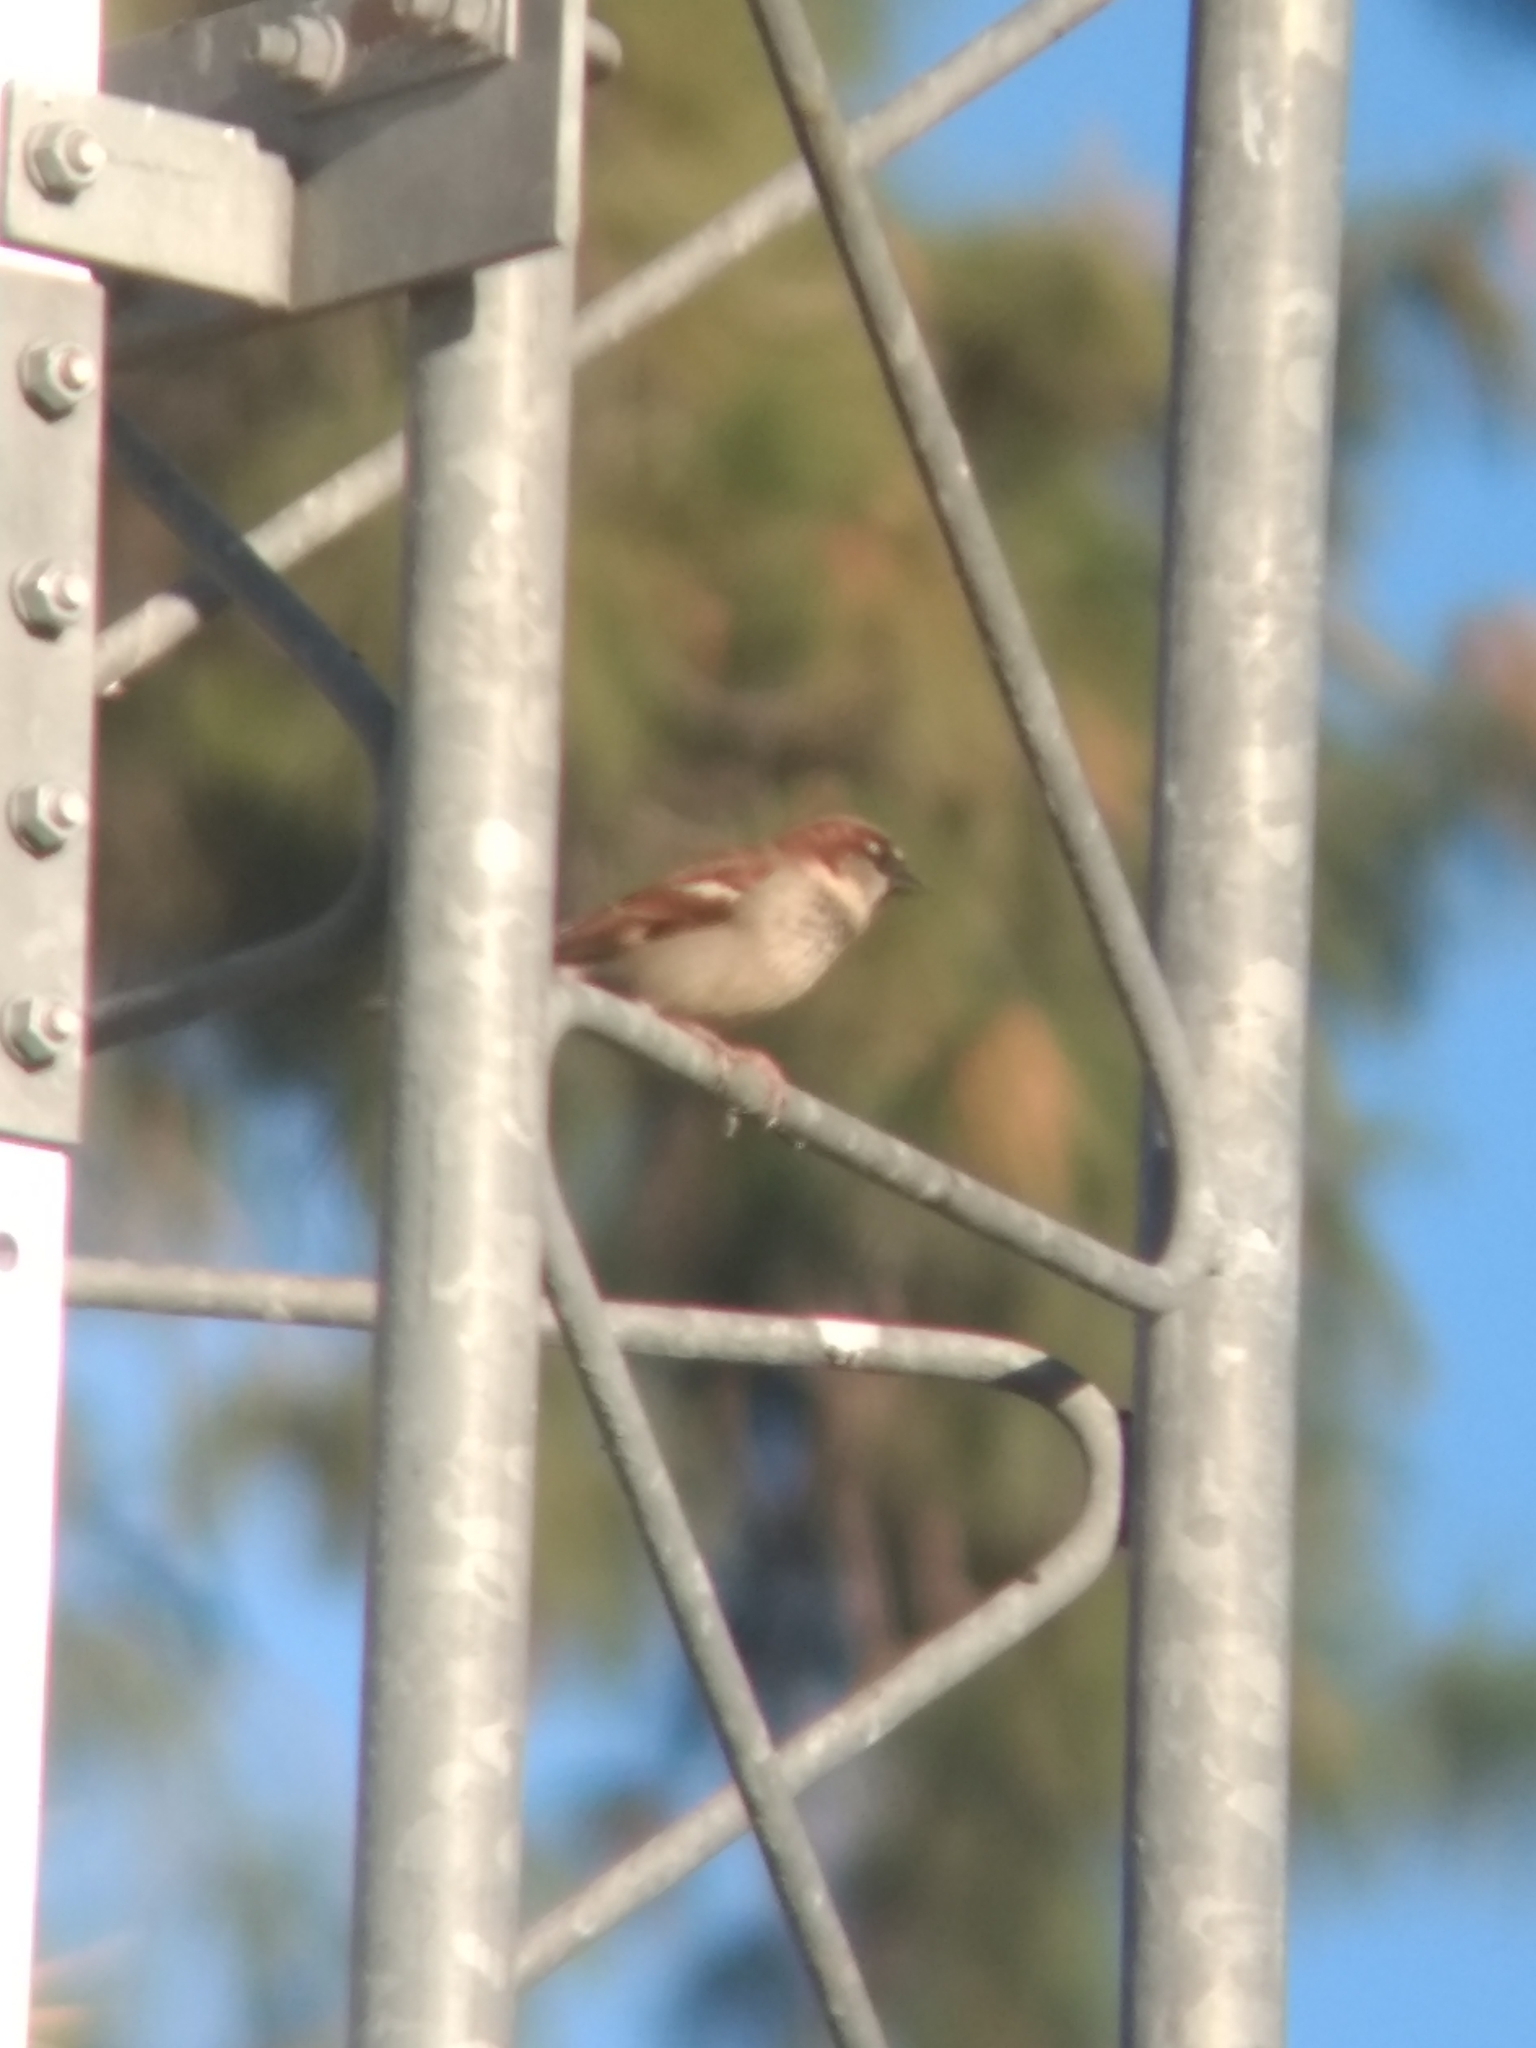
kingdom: Animalia
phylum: Chordata
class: Aves
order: Passeriformes
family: Passeridae
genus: Passer
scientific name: Passer domesticus
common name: House sparrow
